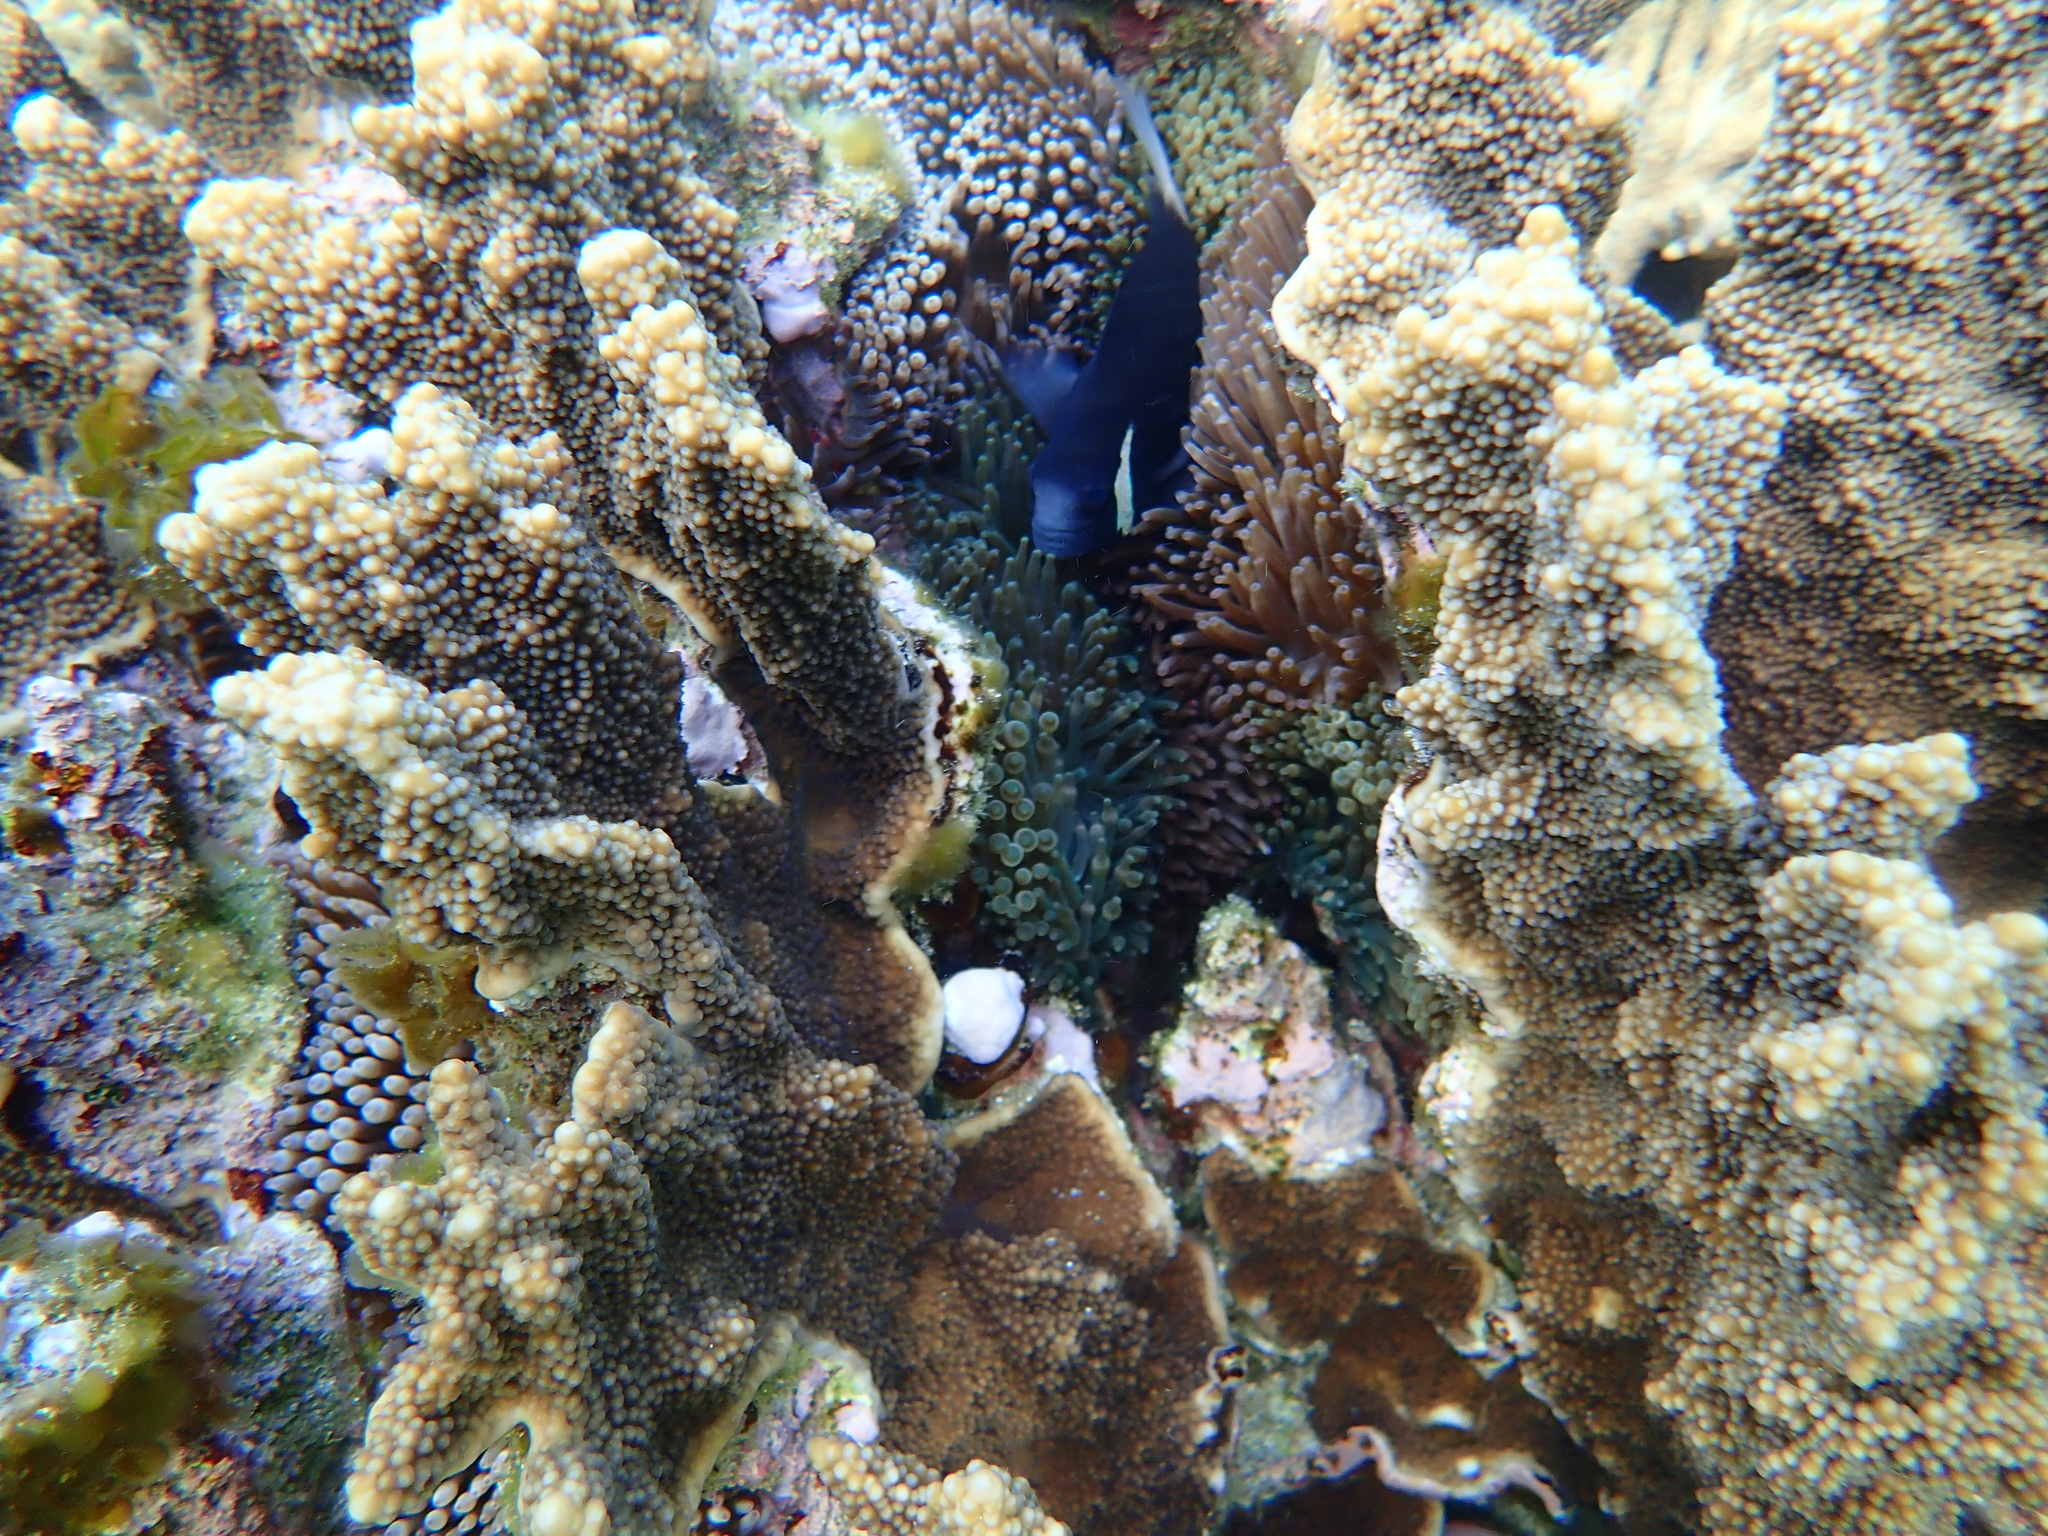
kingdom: Animalia
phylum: Chordata
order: Perciformes
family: Pomacentridae
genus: Amphiprion
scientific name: Amphiprion mccullochi
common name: Mcculloch's anemonefish
